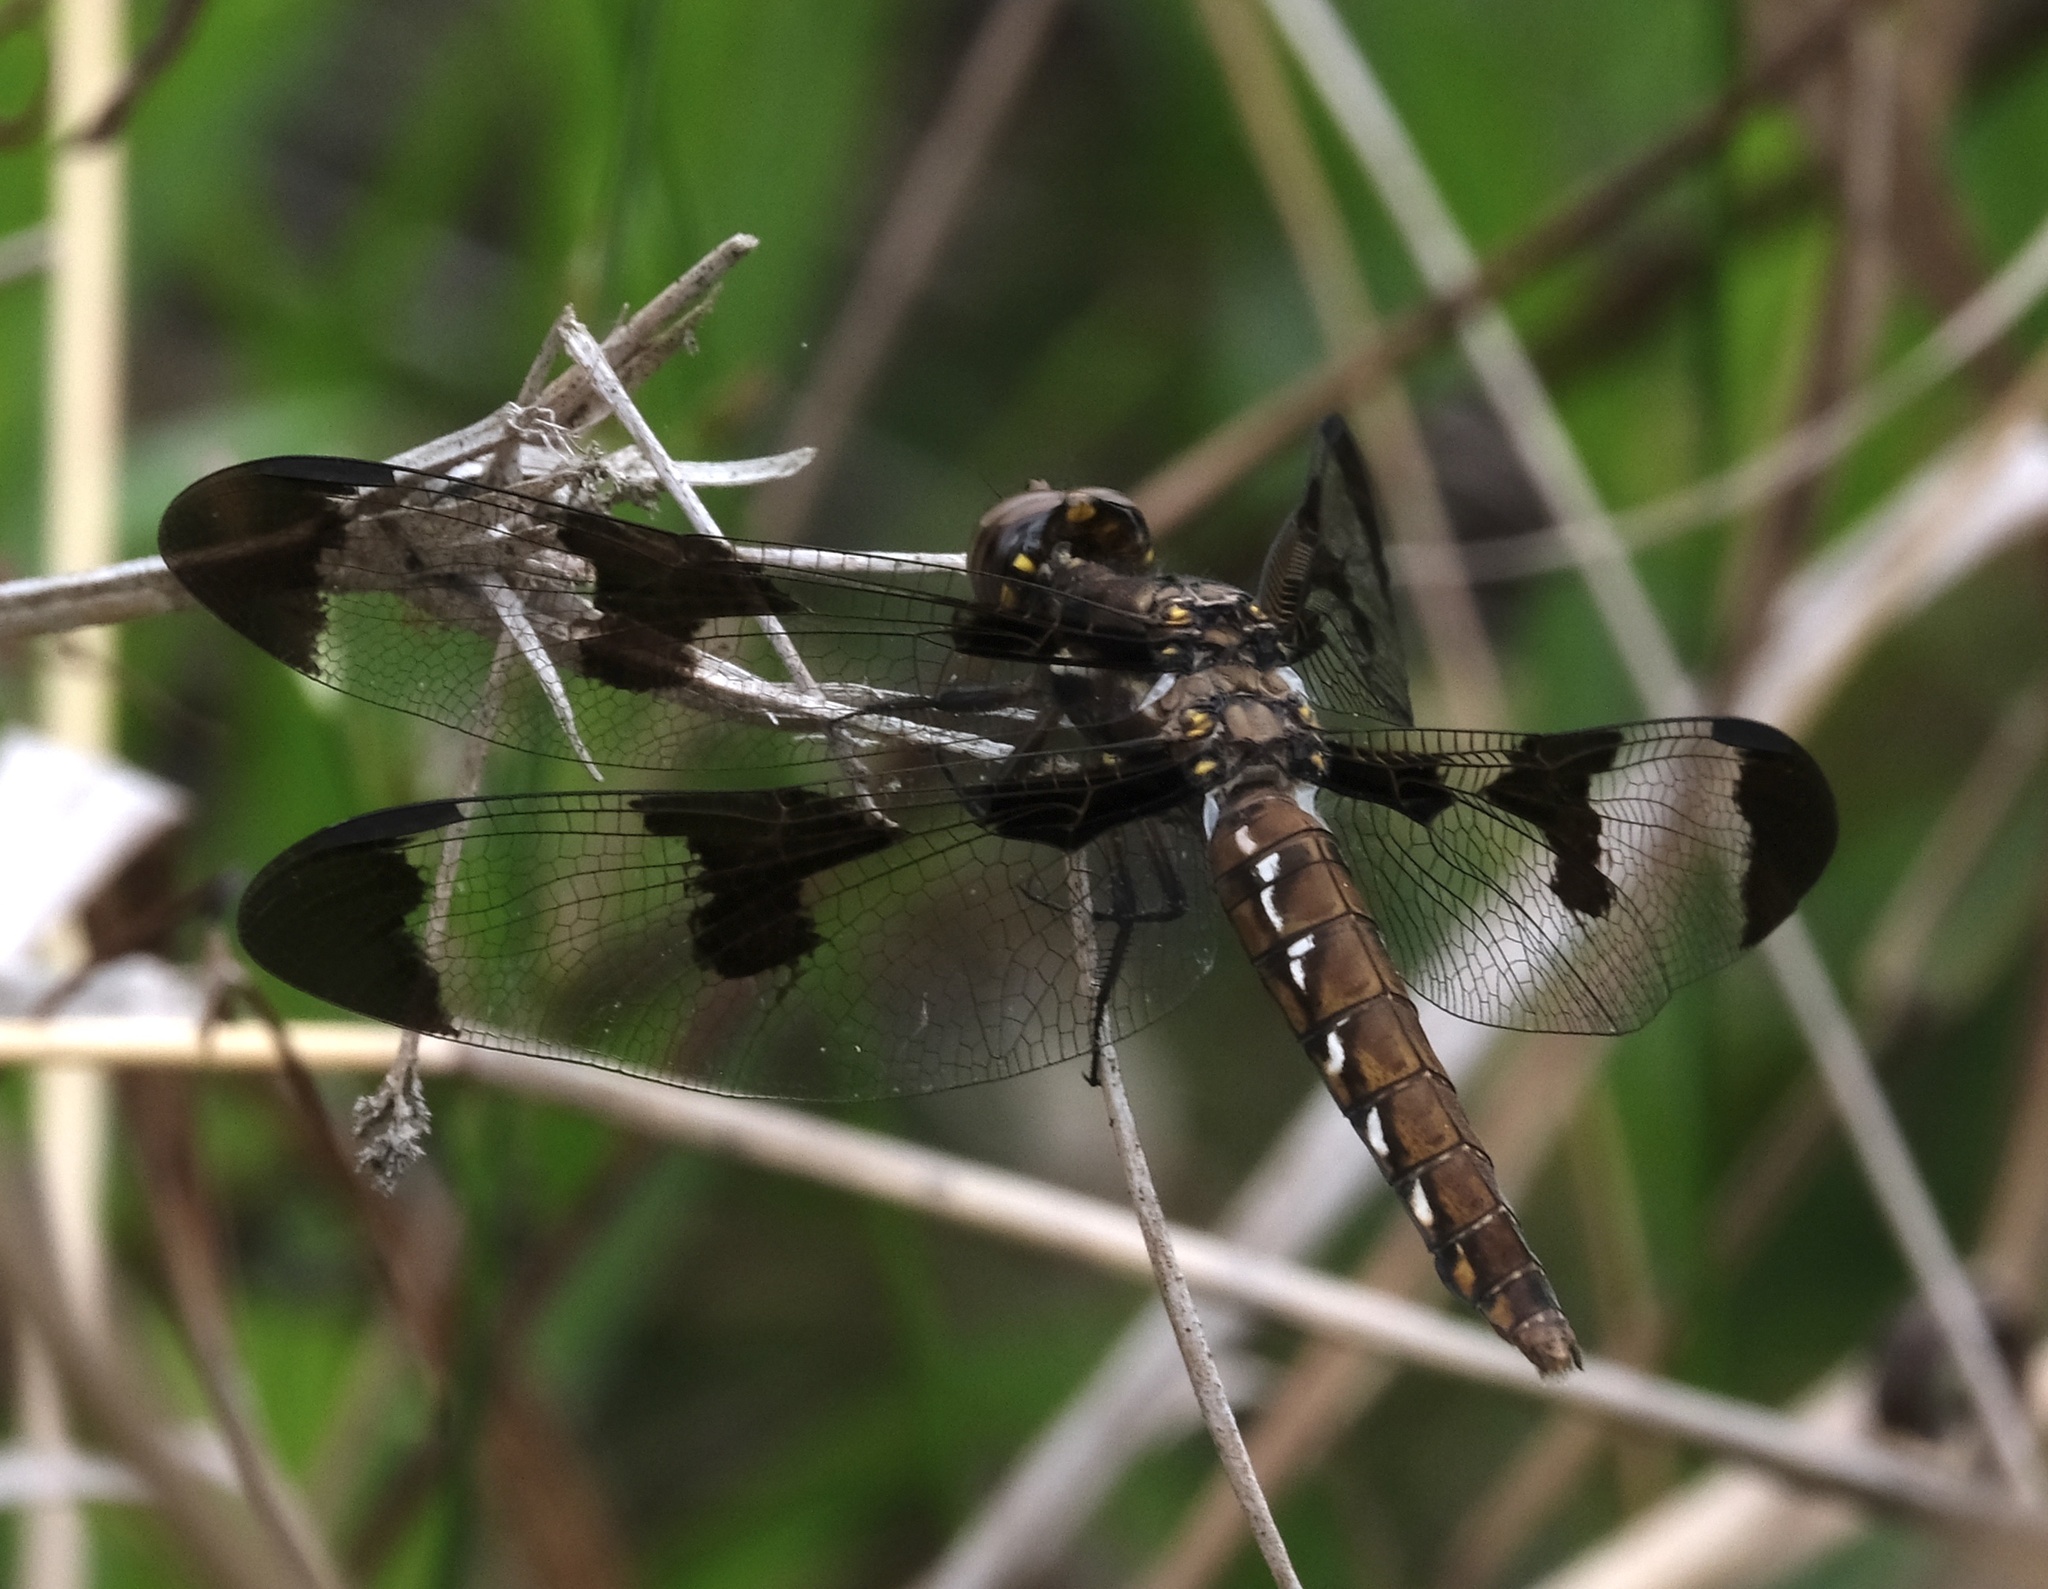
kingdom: Animalia
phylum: Arthropoda
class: Insecta
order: Odonata
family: Libellulidae
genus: Plathemis
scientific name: Plathemis lydia
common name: Common whitetail
